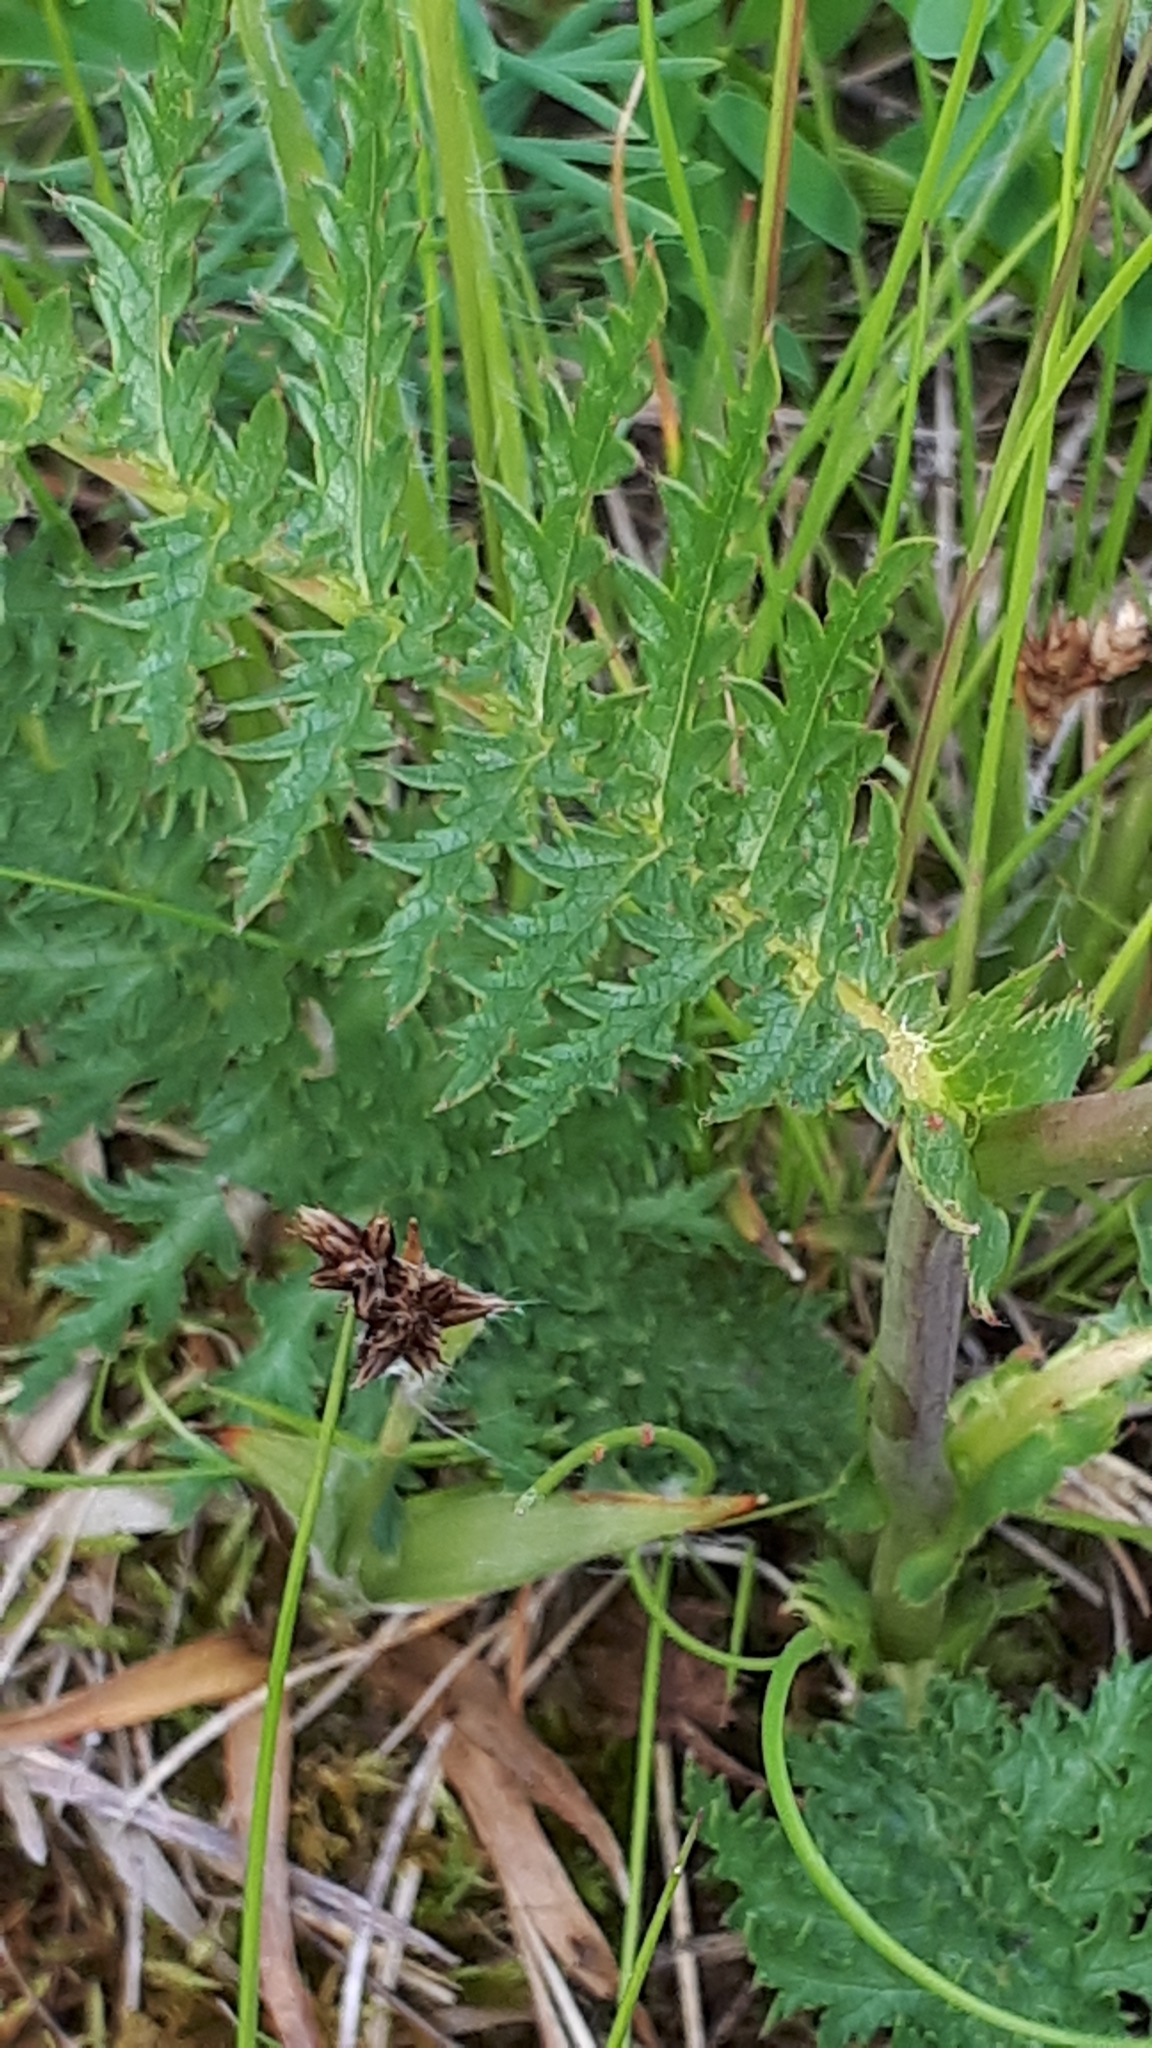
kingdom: Plantae
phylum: Tracheophyta
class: Magnoliopsida
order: Rosales
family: Rosaceae
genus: Filipendula
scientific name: Filipendula vulgaris
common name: Dropwort
